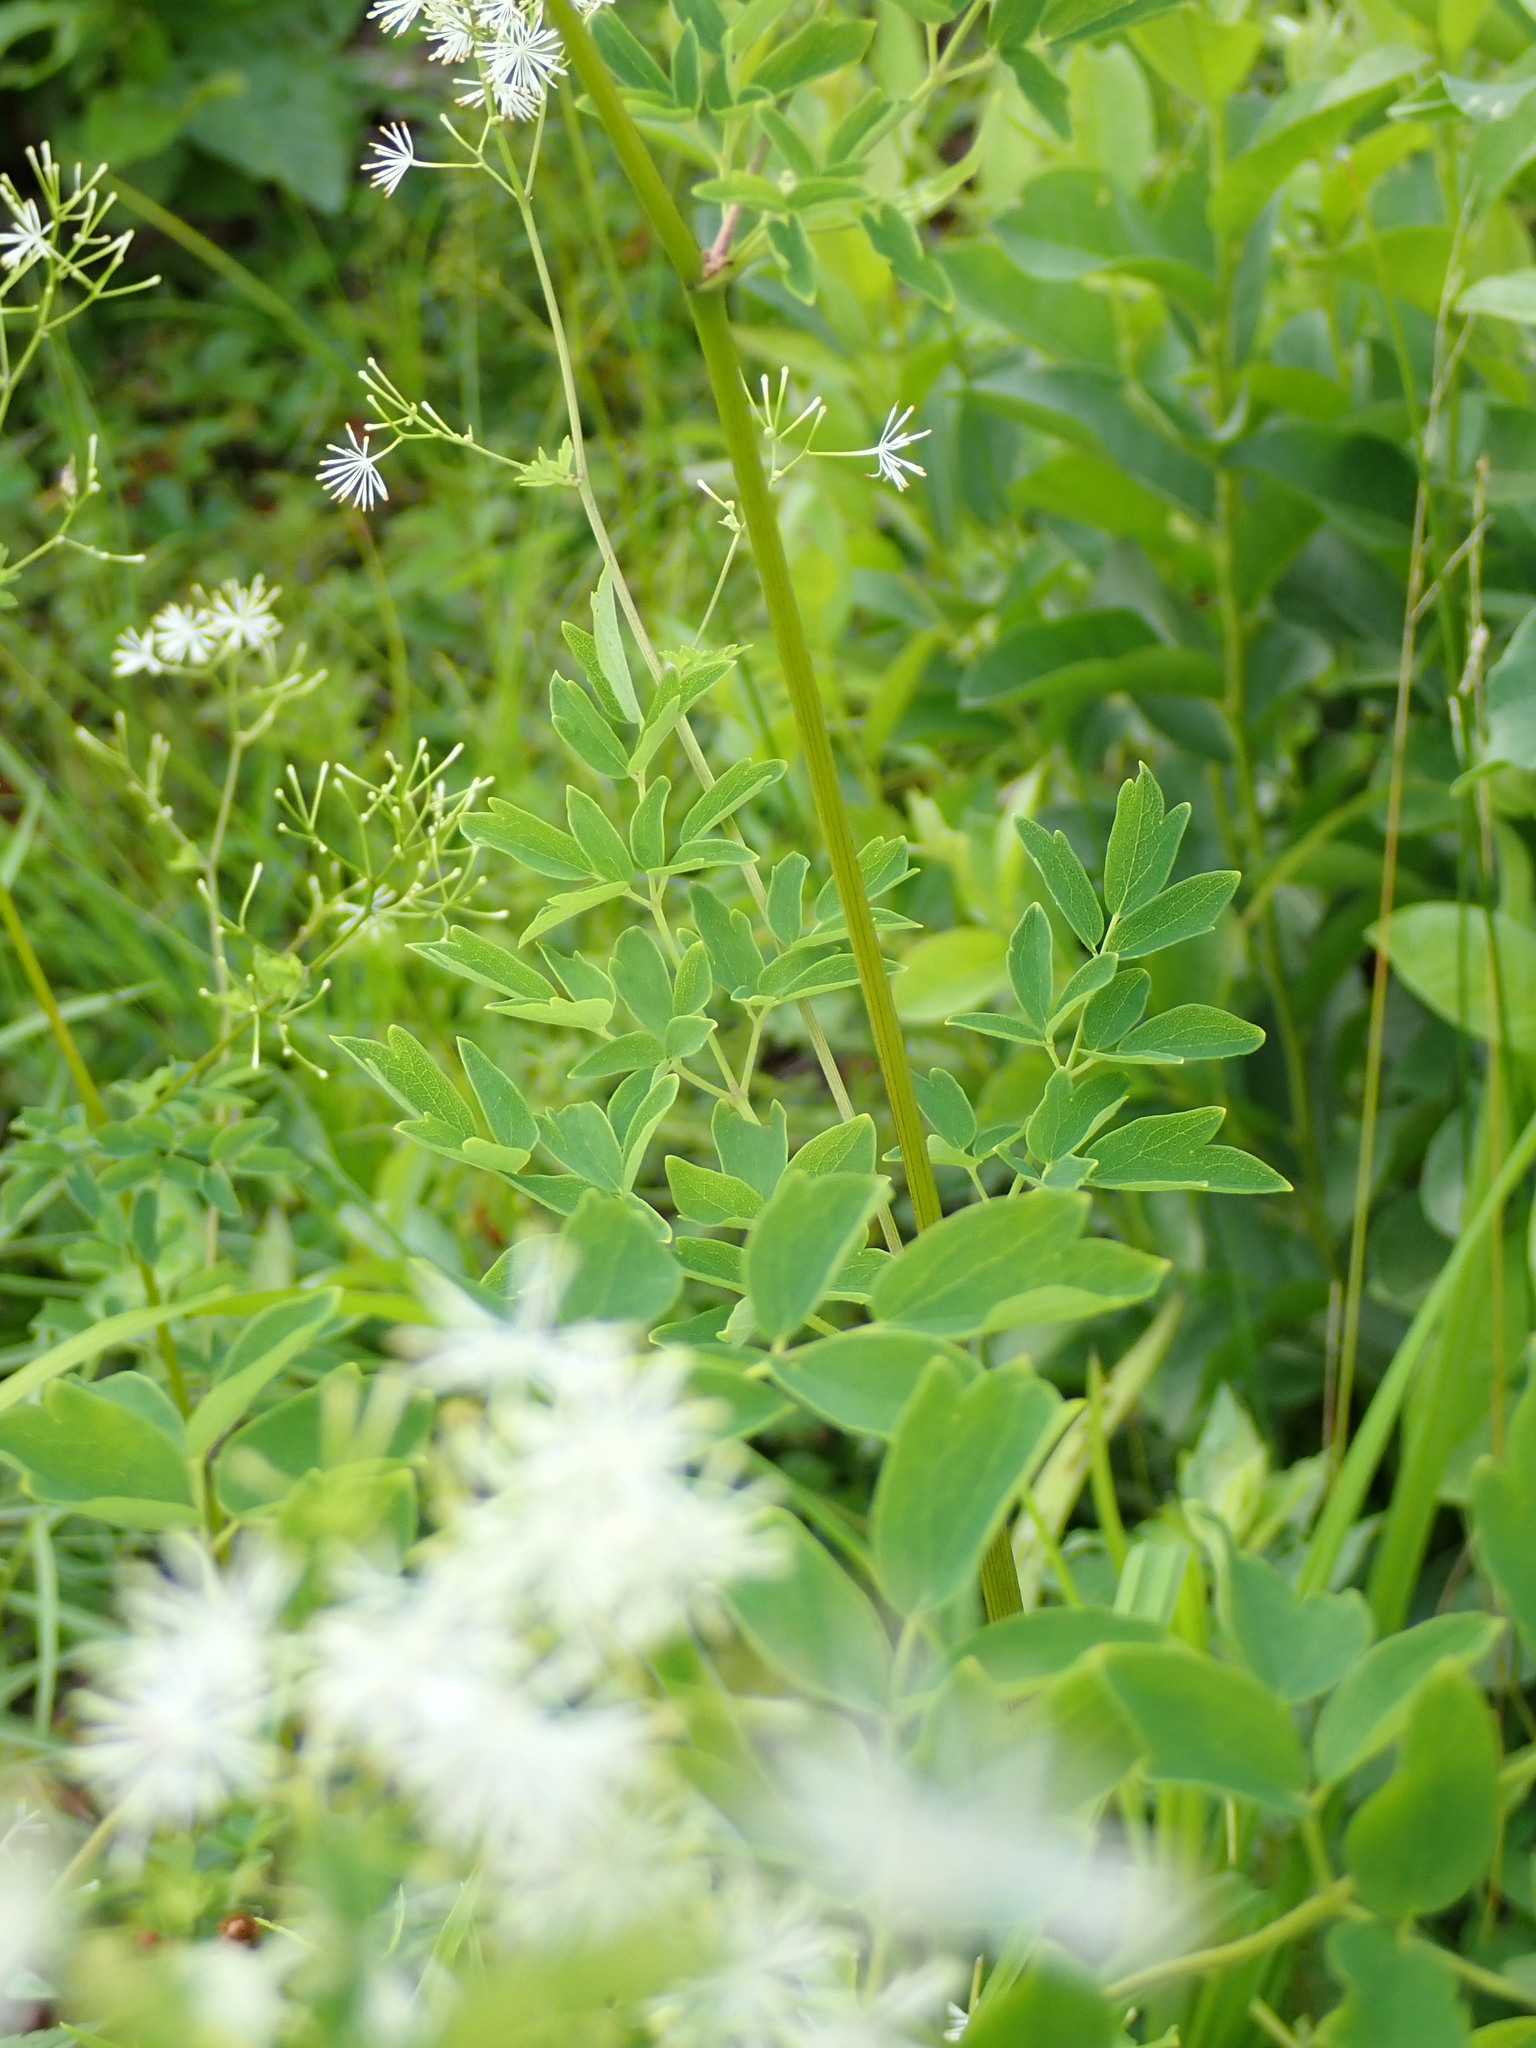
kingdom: Plantae
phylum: Tracheophyta
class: Magnoliopsida
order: Ranunculales
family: Ranunculaceae
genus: Thalictrum
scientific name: Thalictrum pubescens
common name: King-of-the-meadow
